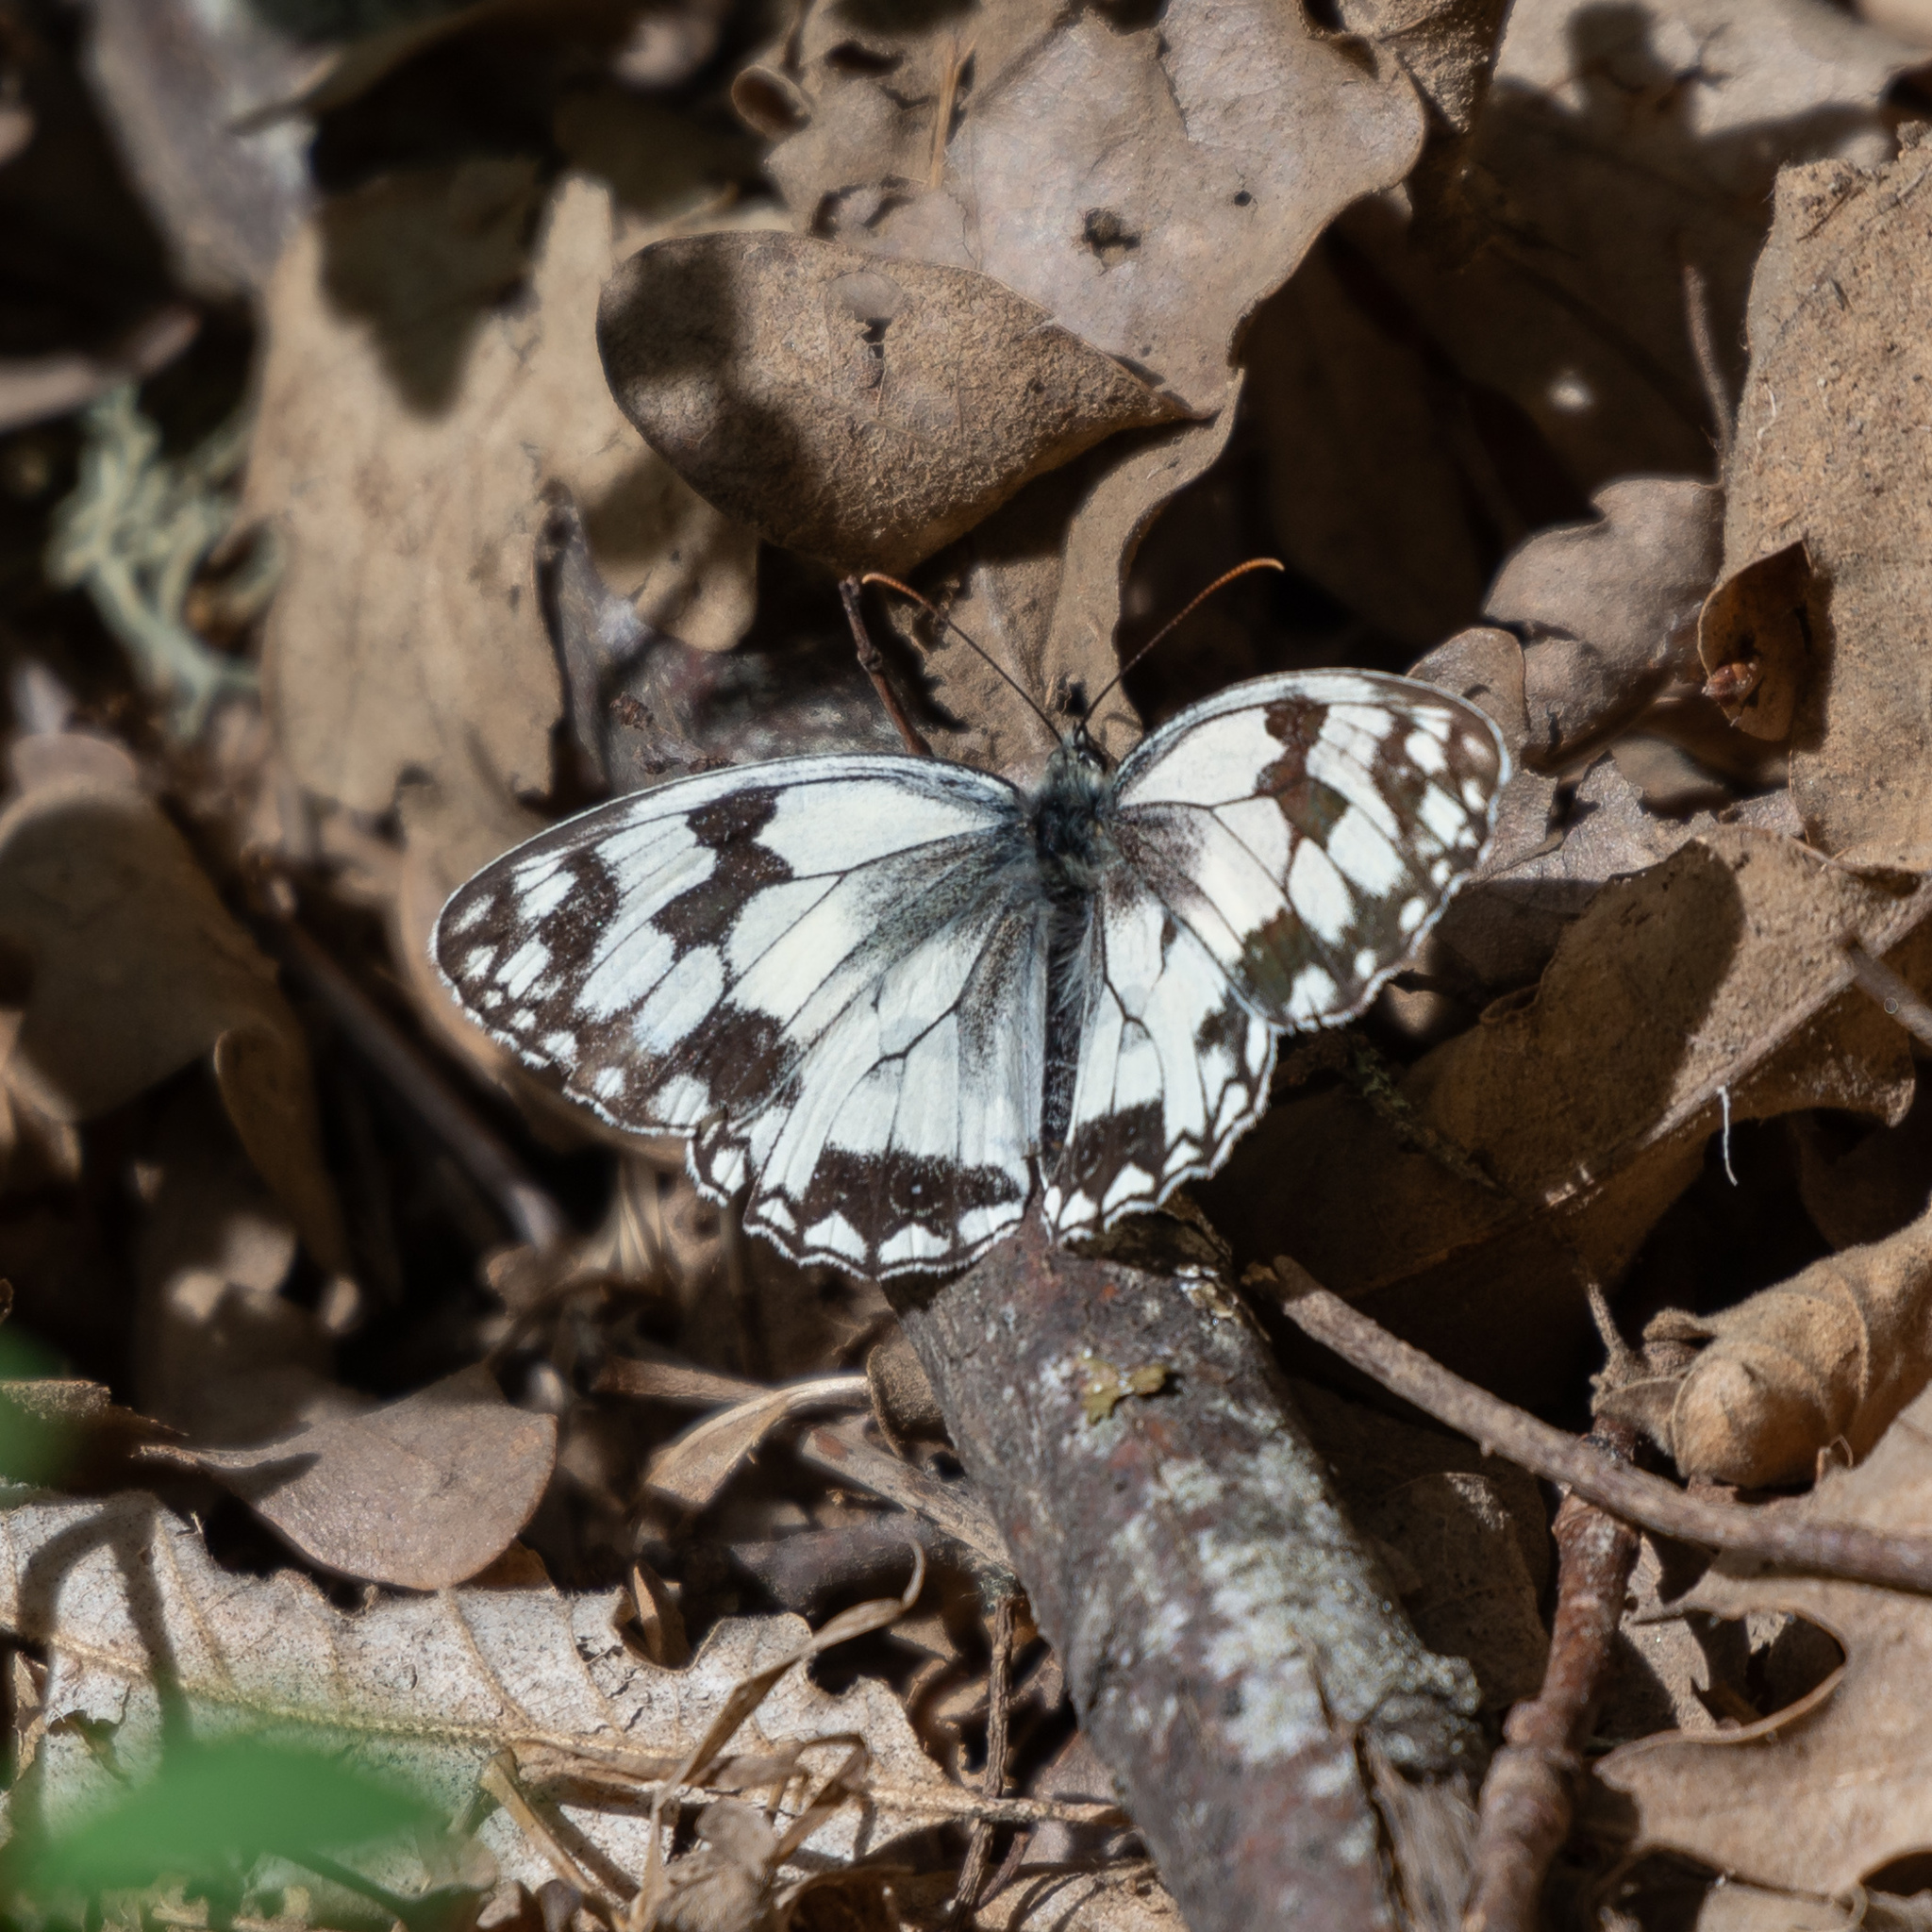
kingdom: Animalia
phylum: Arthropoda
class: Insecta
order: Lepidoptera
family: Nymphalidae
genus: Melanargia
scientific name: Melanargia lachesis
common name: Iberian marbled white
